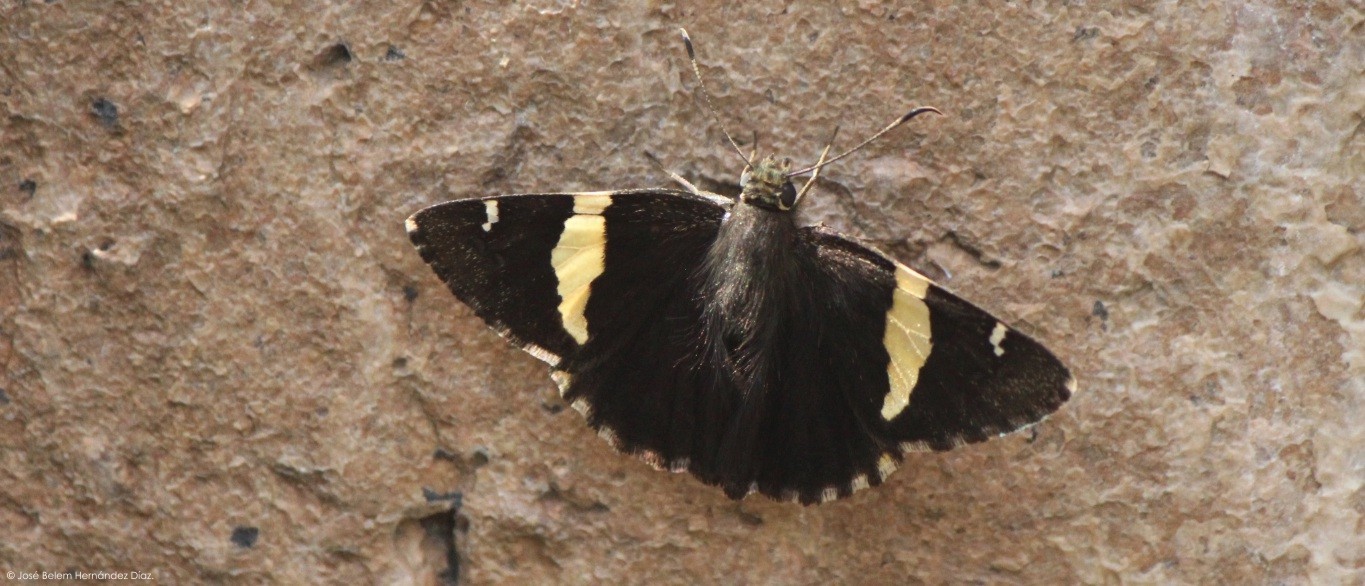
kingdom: Animalia
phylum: Arthropoda
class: Arachnida
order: Scorpiones
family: Bothriuridae
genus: Telegonus
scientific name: Telegonus cellus
